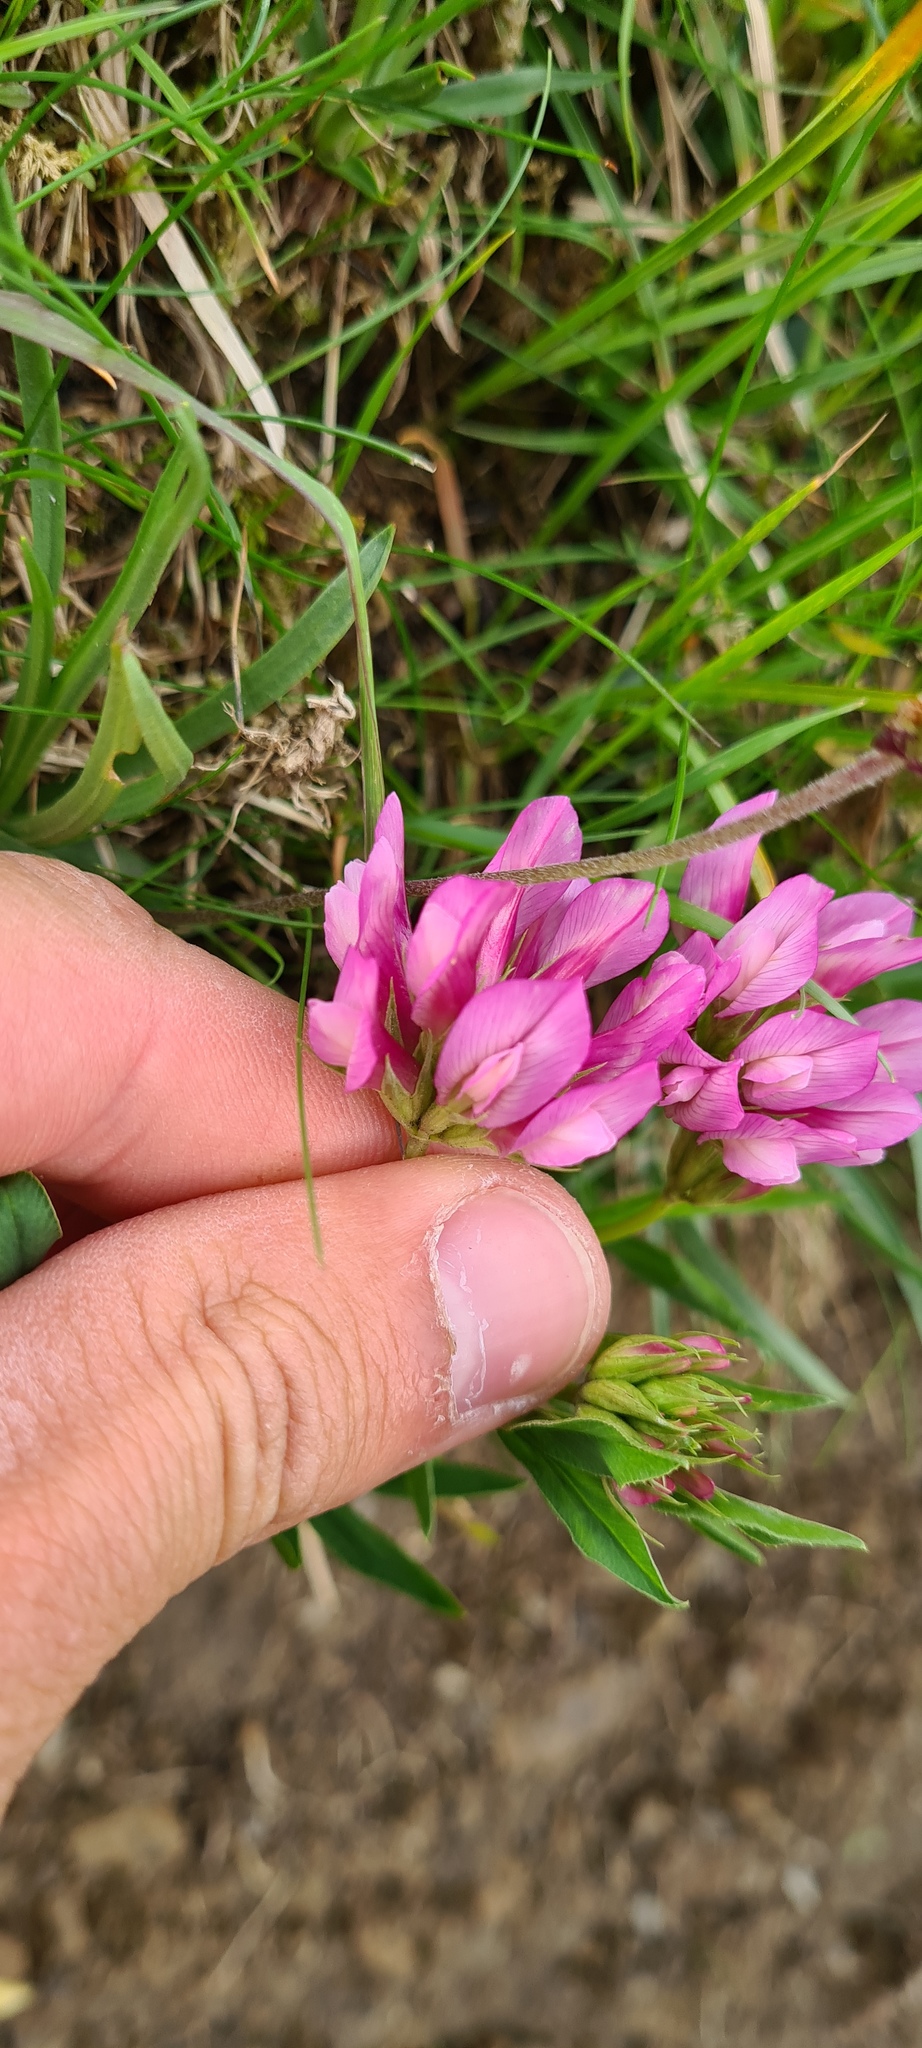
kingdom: Plantae
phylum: Tracheophyta
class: Magnoliopsida
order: Fabales
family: Fabaceae
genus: Trifolium
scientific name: Trifolium alpinum
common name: Alpine clover
